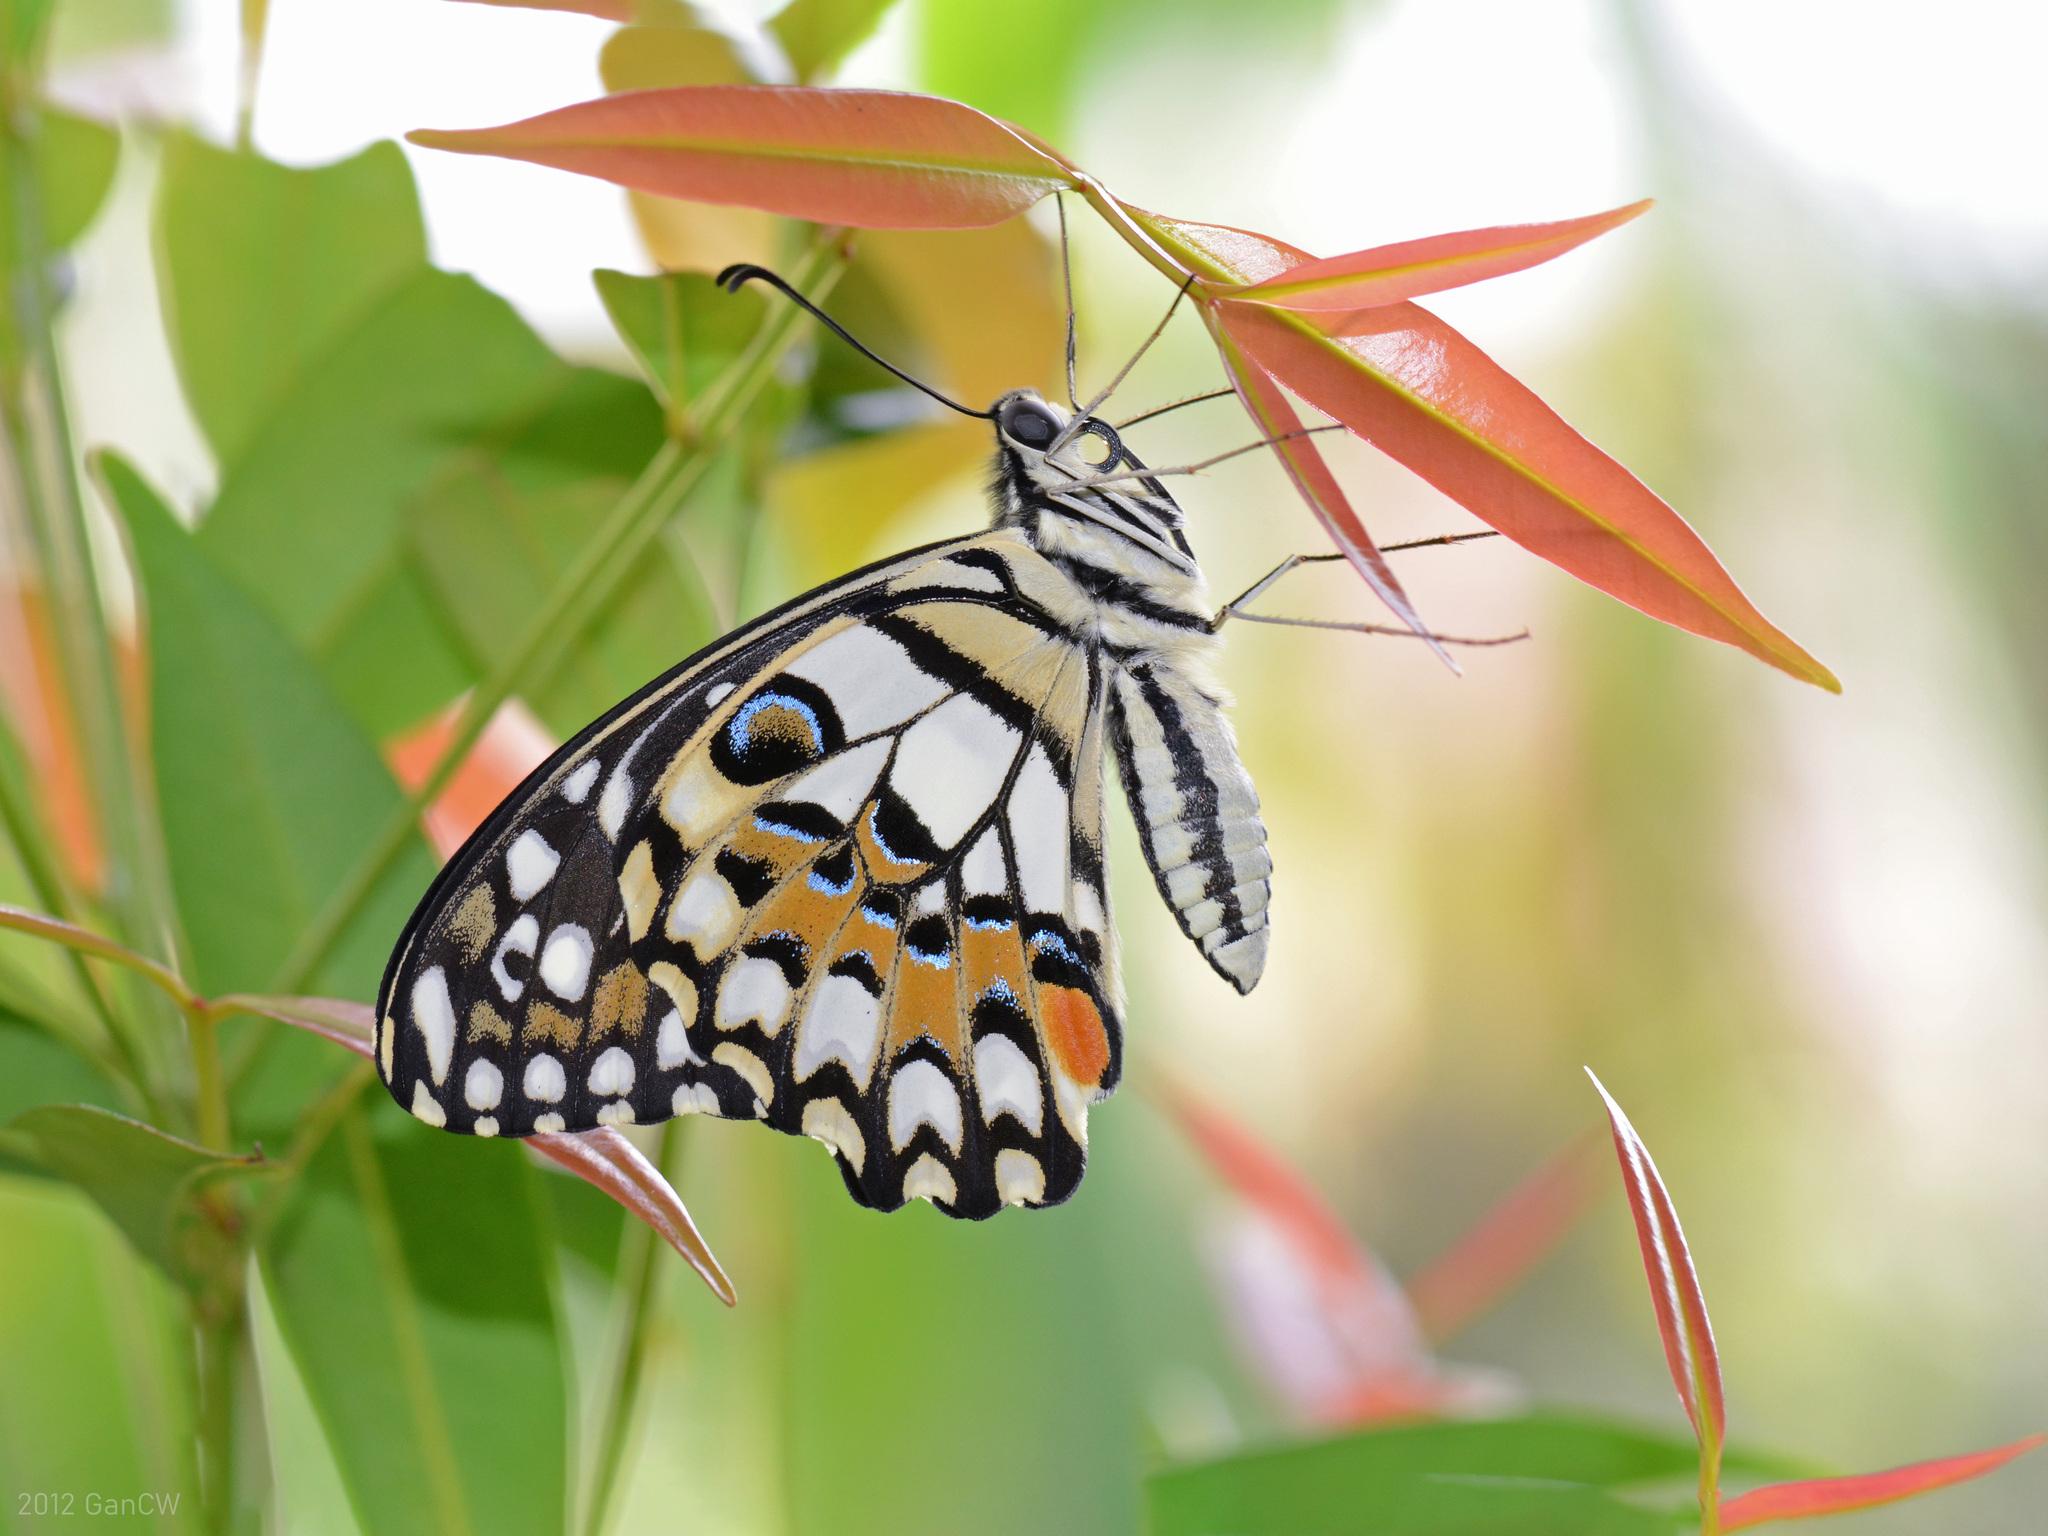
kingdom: Animalia
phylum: Arthropoda
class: Insecta
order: Lepidoptera
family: Papilionidae
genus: Papilio
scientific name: Papilio demoleus
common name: Lime butterfly
